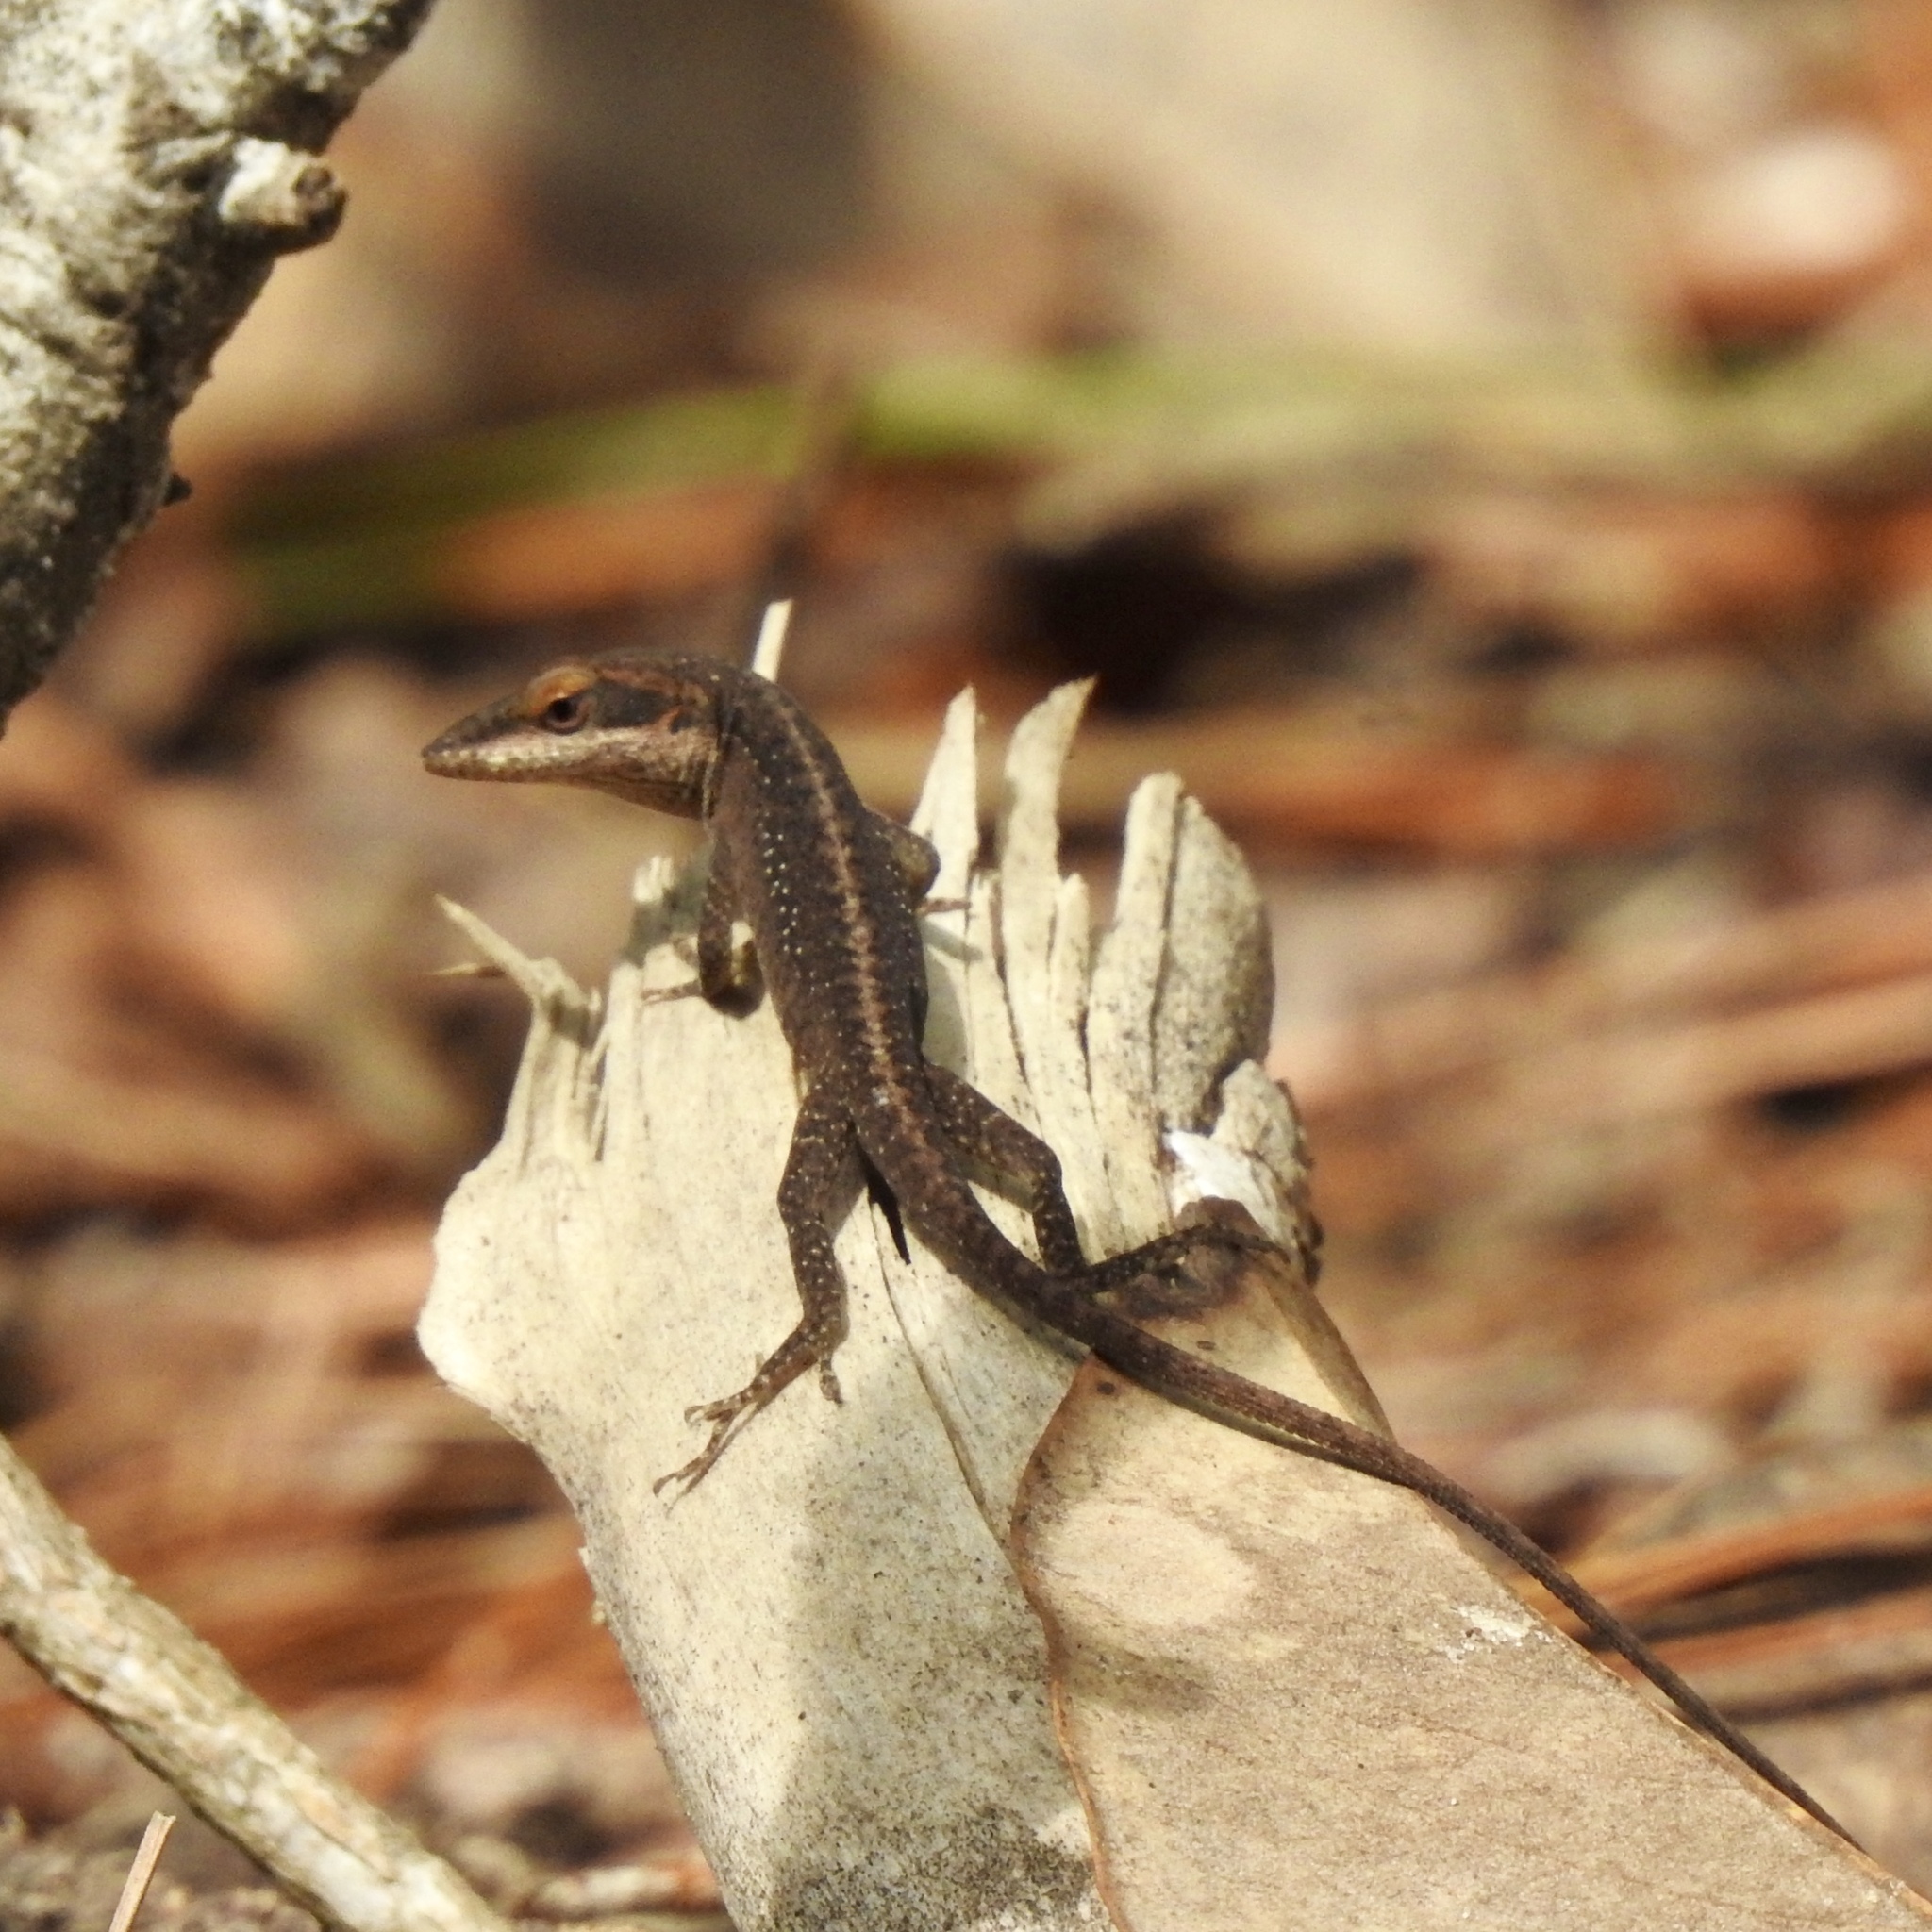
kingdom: Animalia
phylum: Chordata
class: Squamata
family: Dactyloidae
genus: Anolis
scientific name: Anolis carolinensis
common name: Green anole
